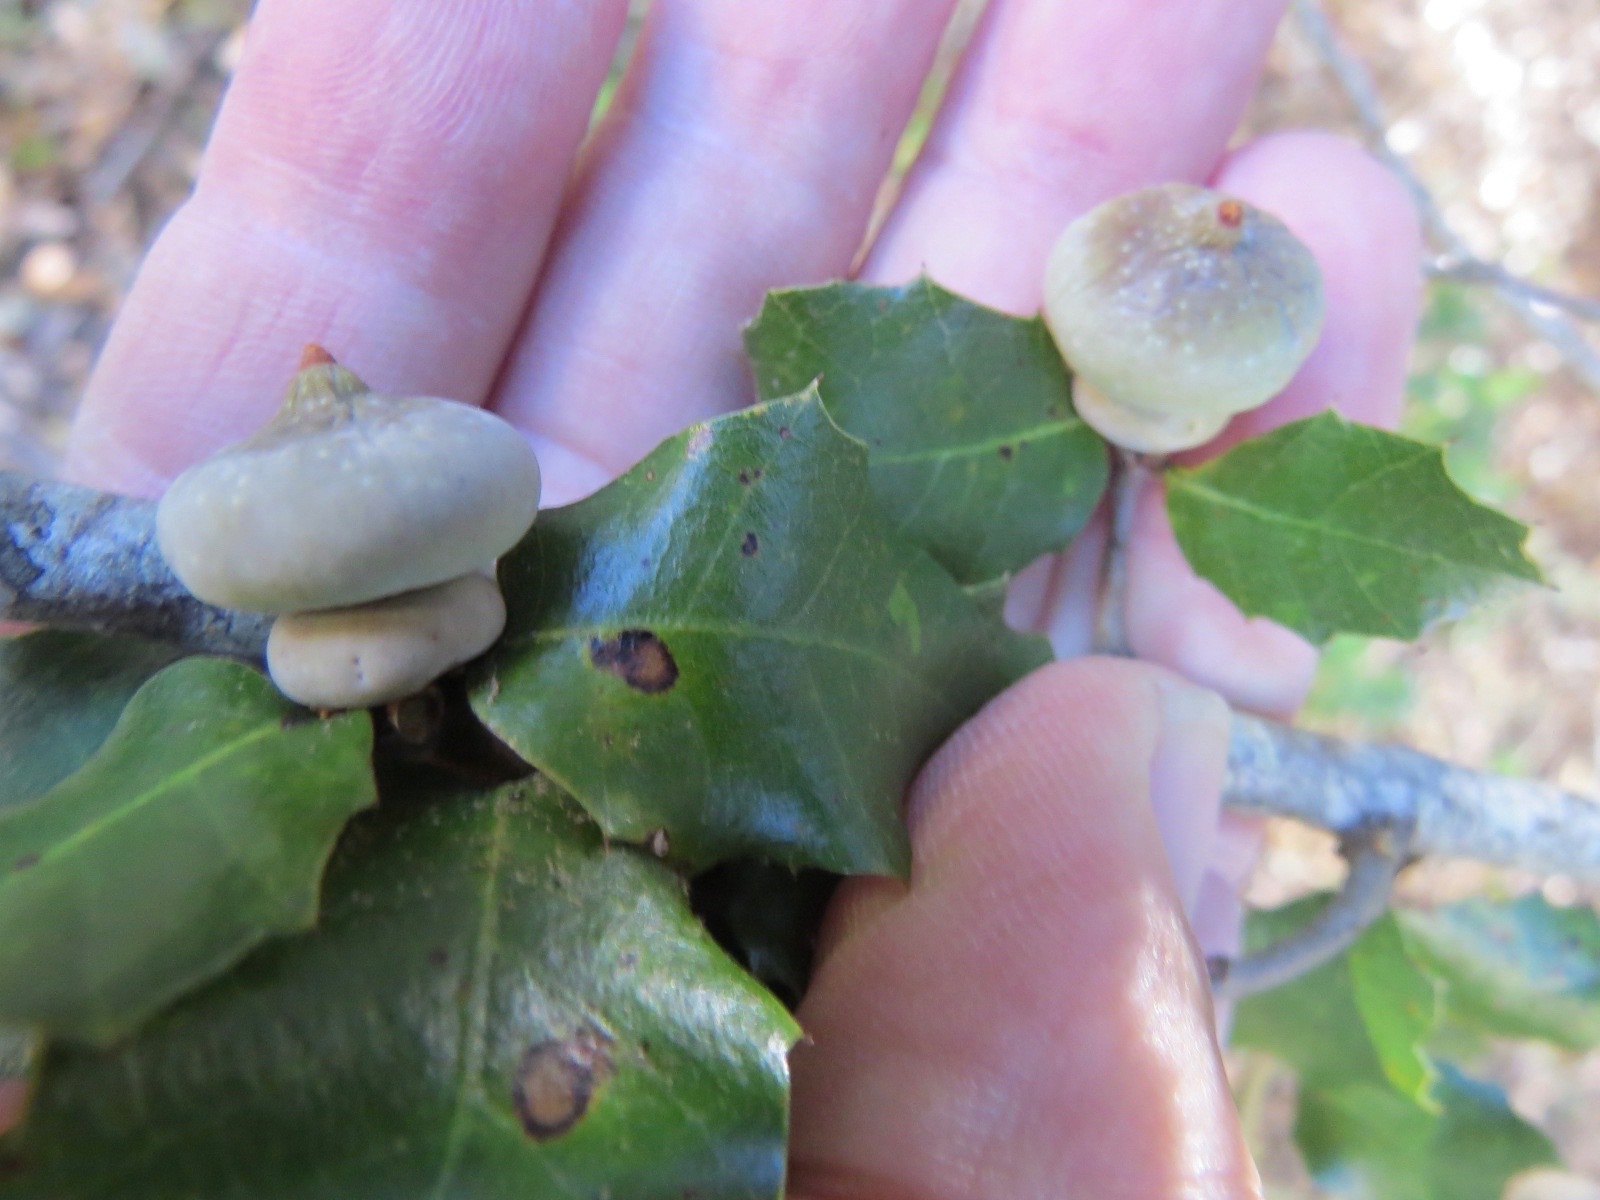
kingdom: Animalia
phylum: Arthropoda
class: Insecta
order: Hymenoptera
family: Cynipidae
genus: Heteroecus
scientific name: Heteroecus
